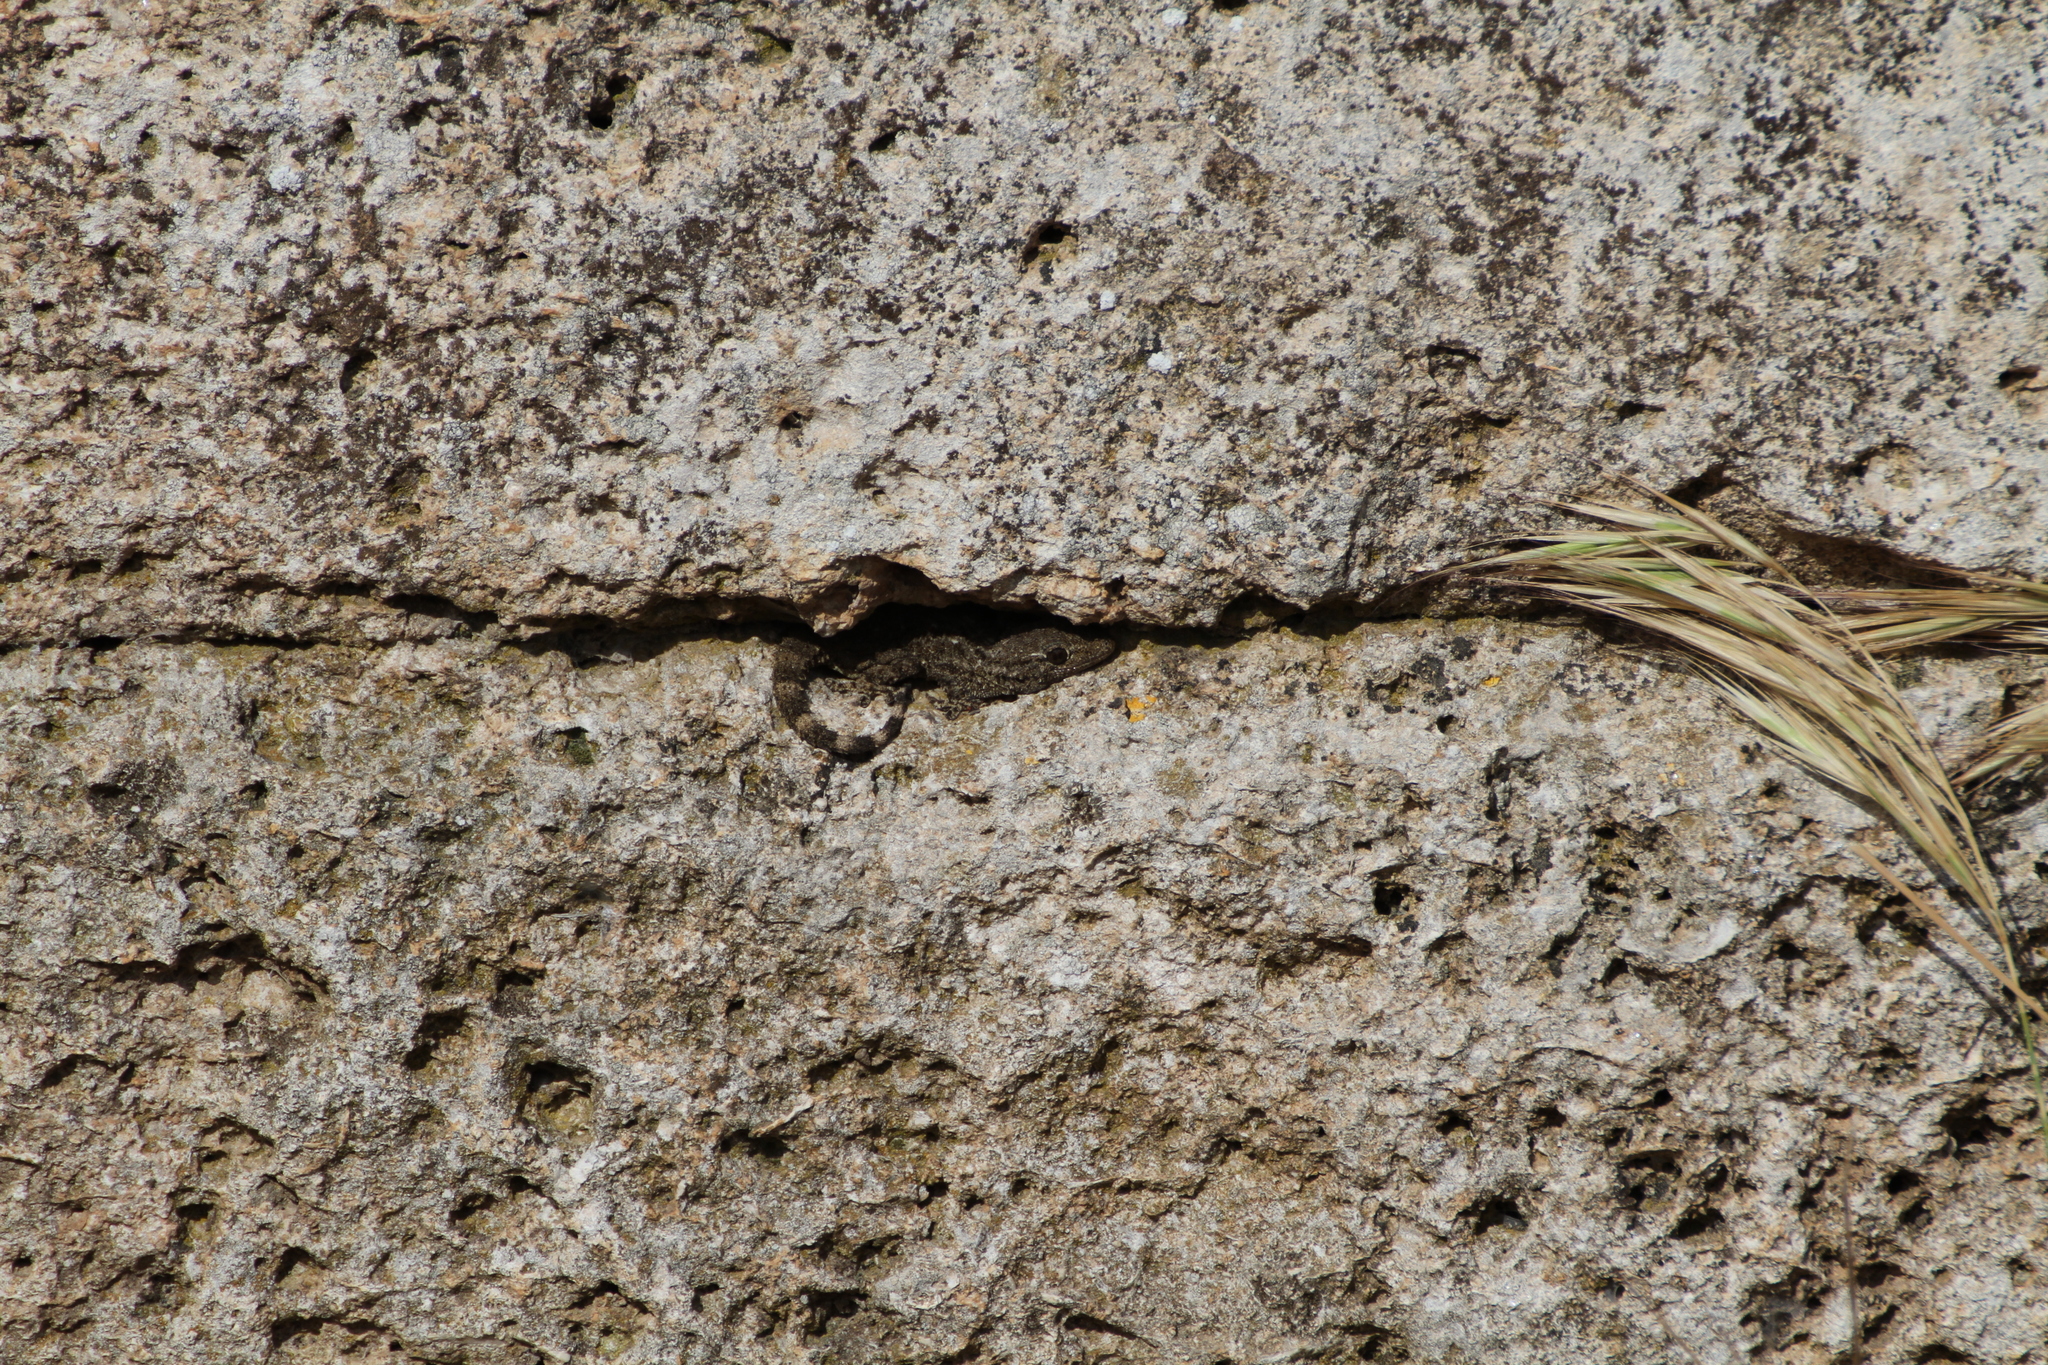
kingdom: Animalia
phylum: Chordata
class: Squamata
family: Phyllodactylidae
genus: Tarentola
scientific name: Tarentola mauritanica
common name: Moorish gecko
